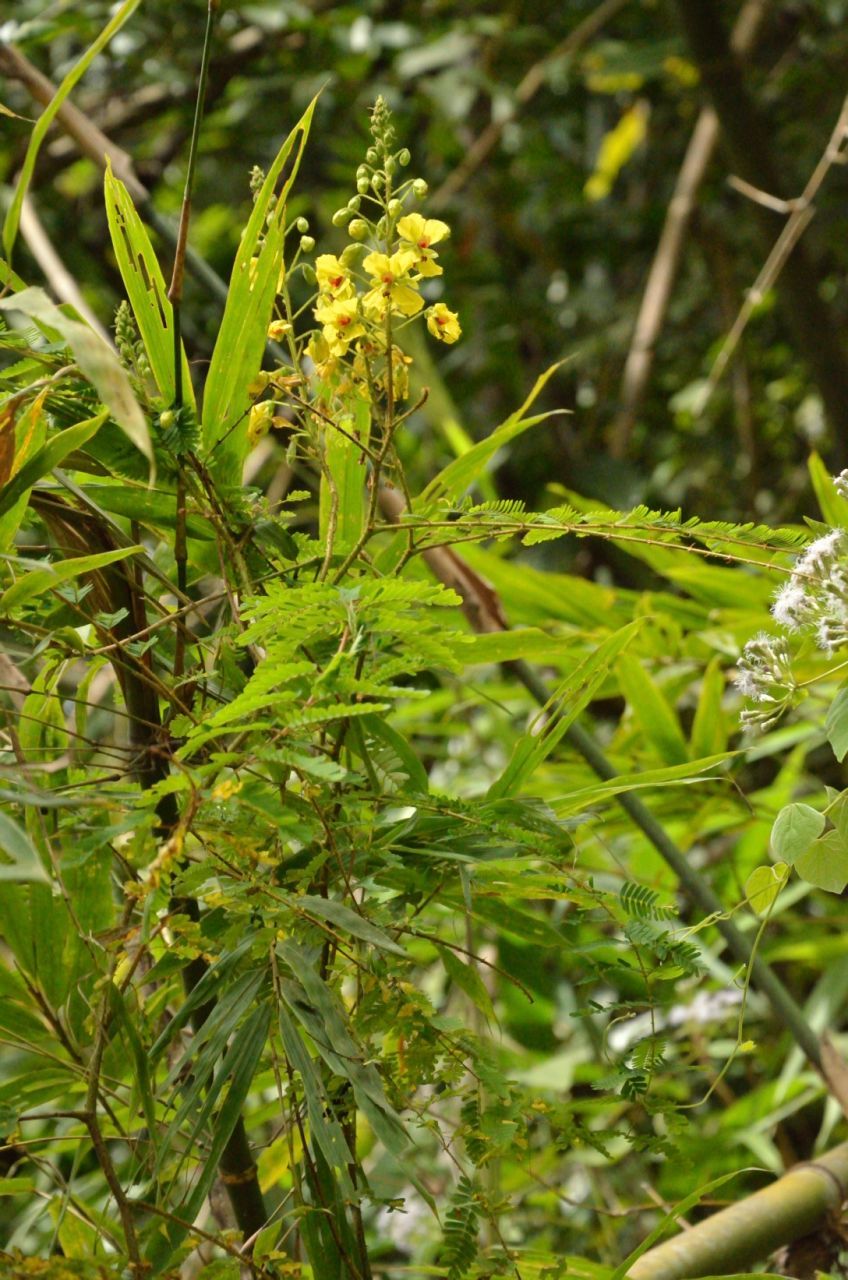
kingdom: Plantae
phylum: Tracheophyta
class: Magnoliopsida
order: Fabales
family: Fabaceae
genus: Hultholia
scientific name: Hultholia mimosoides
